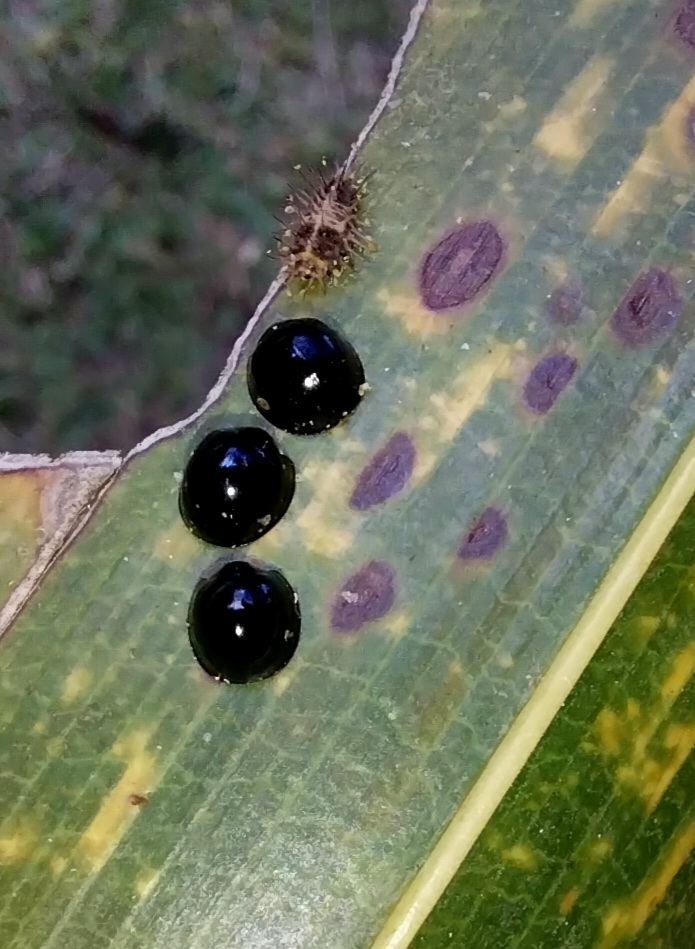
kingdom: Animalia
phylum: Arthropoda
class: Insecta
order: Coleoptera
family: Coccinellidae
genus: Chilocorus
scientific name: Chilocorus nigritus
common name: Ladybird beetle
